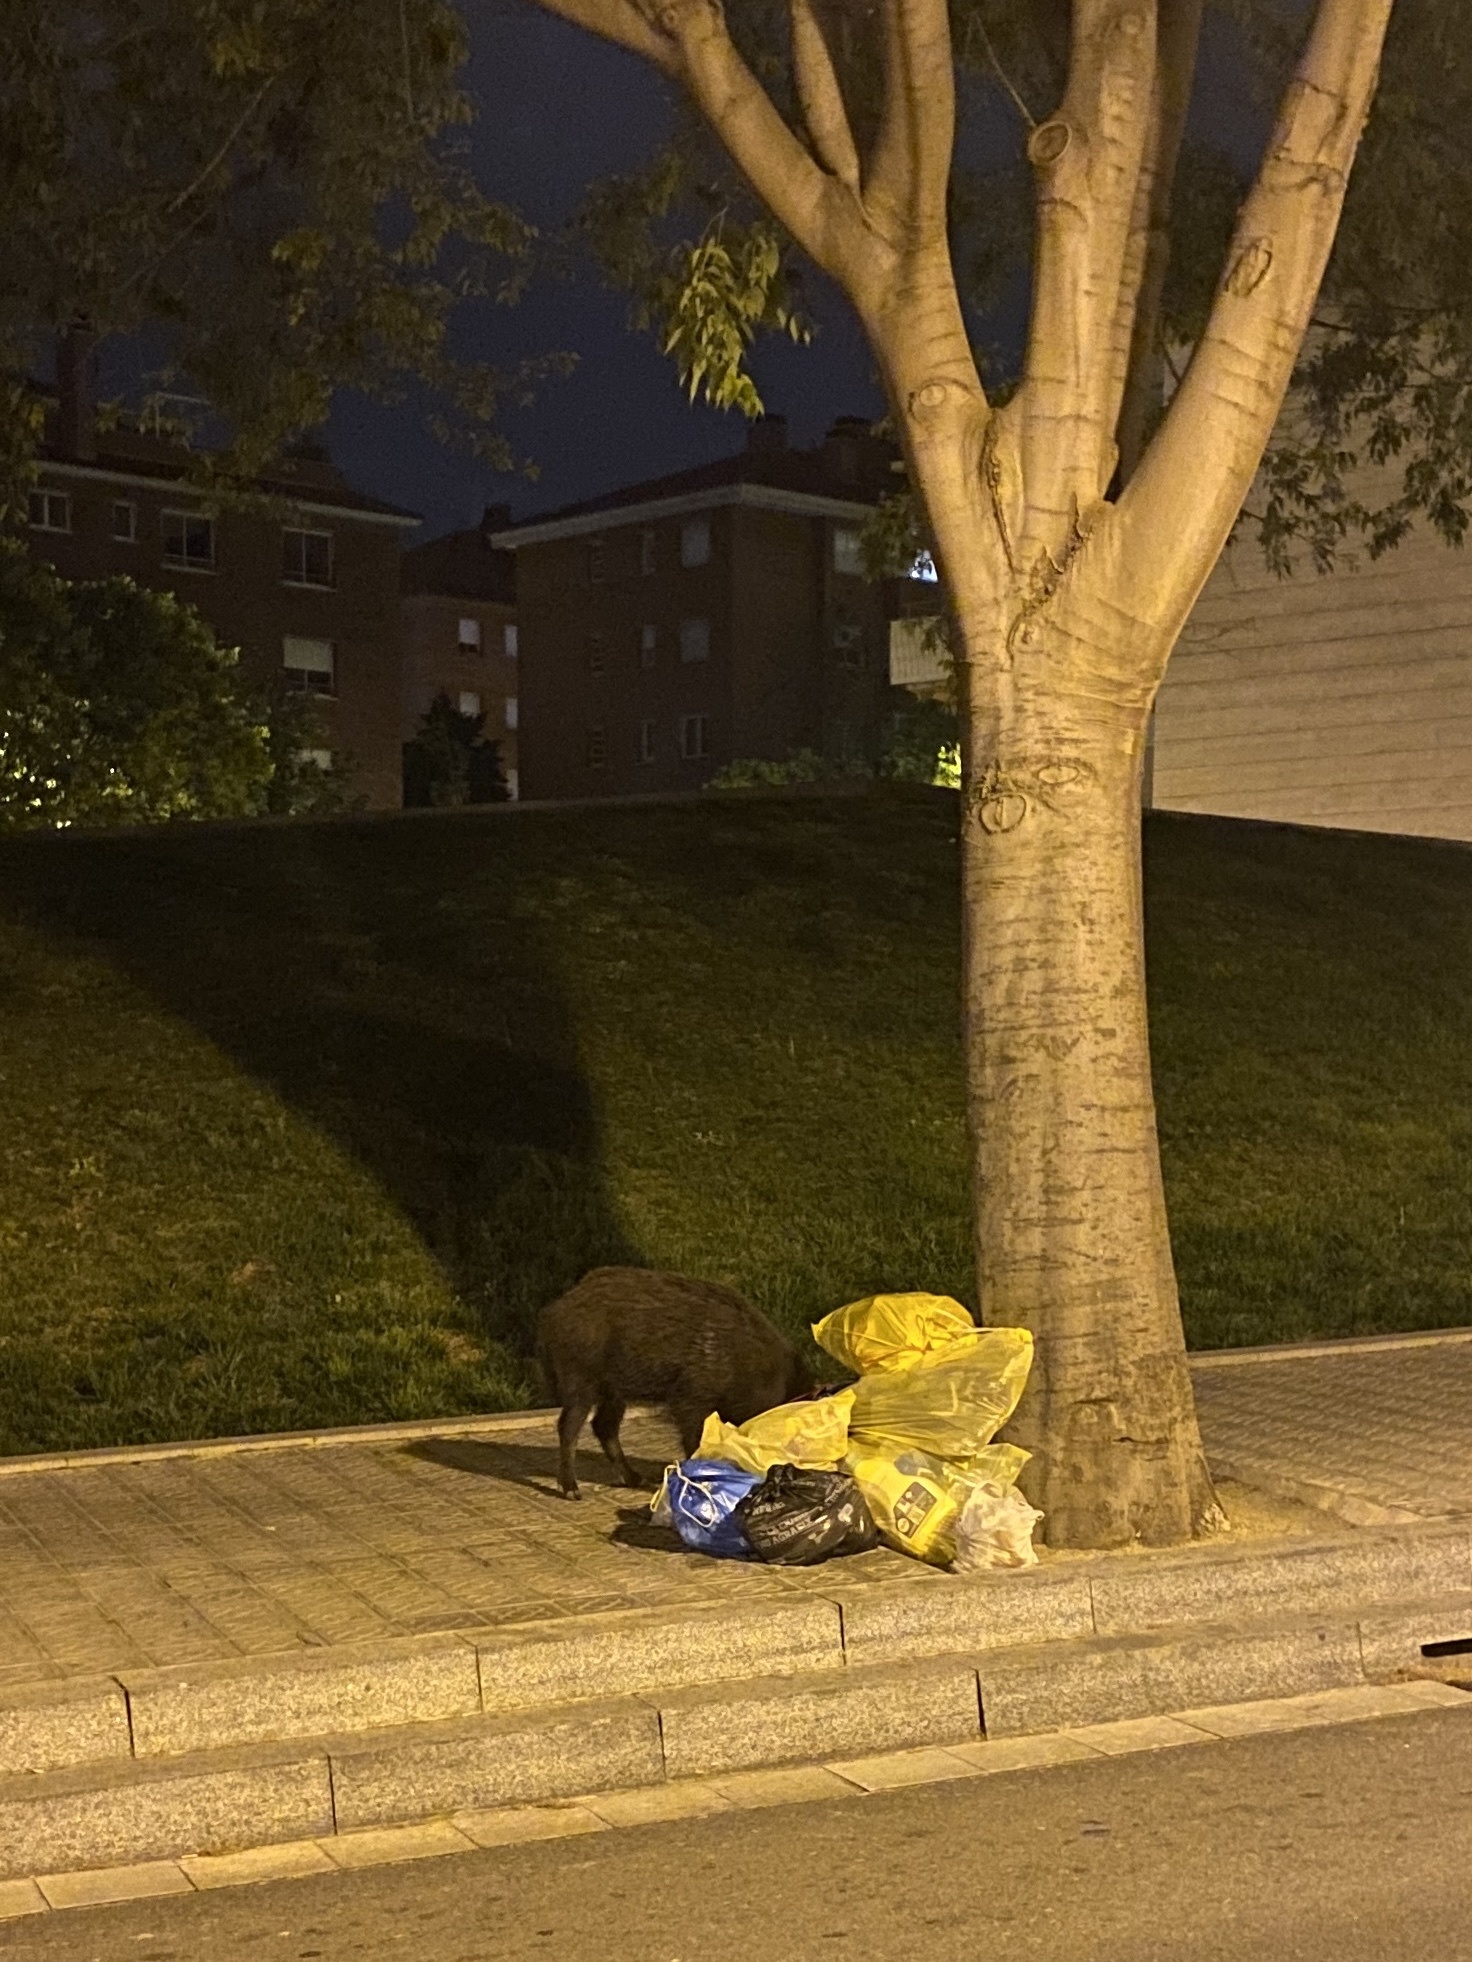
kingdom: Animalia
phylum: Chordata
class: Mammalia
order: Artiodactyla
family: Suidae
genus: Sus
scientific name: Sus scrofa
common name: Wild boar
